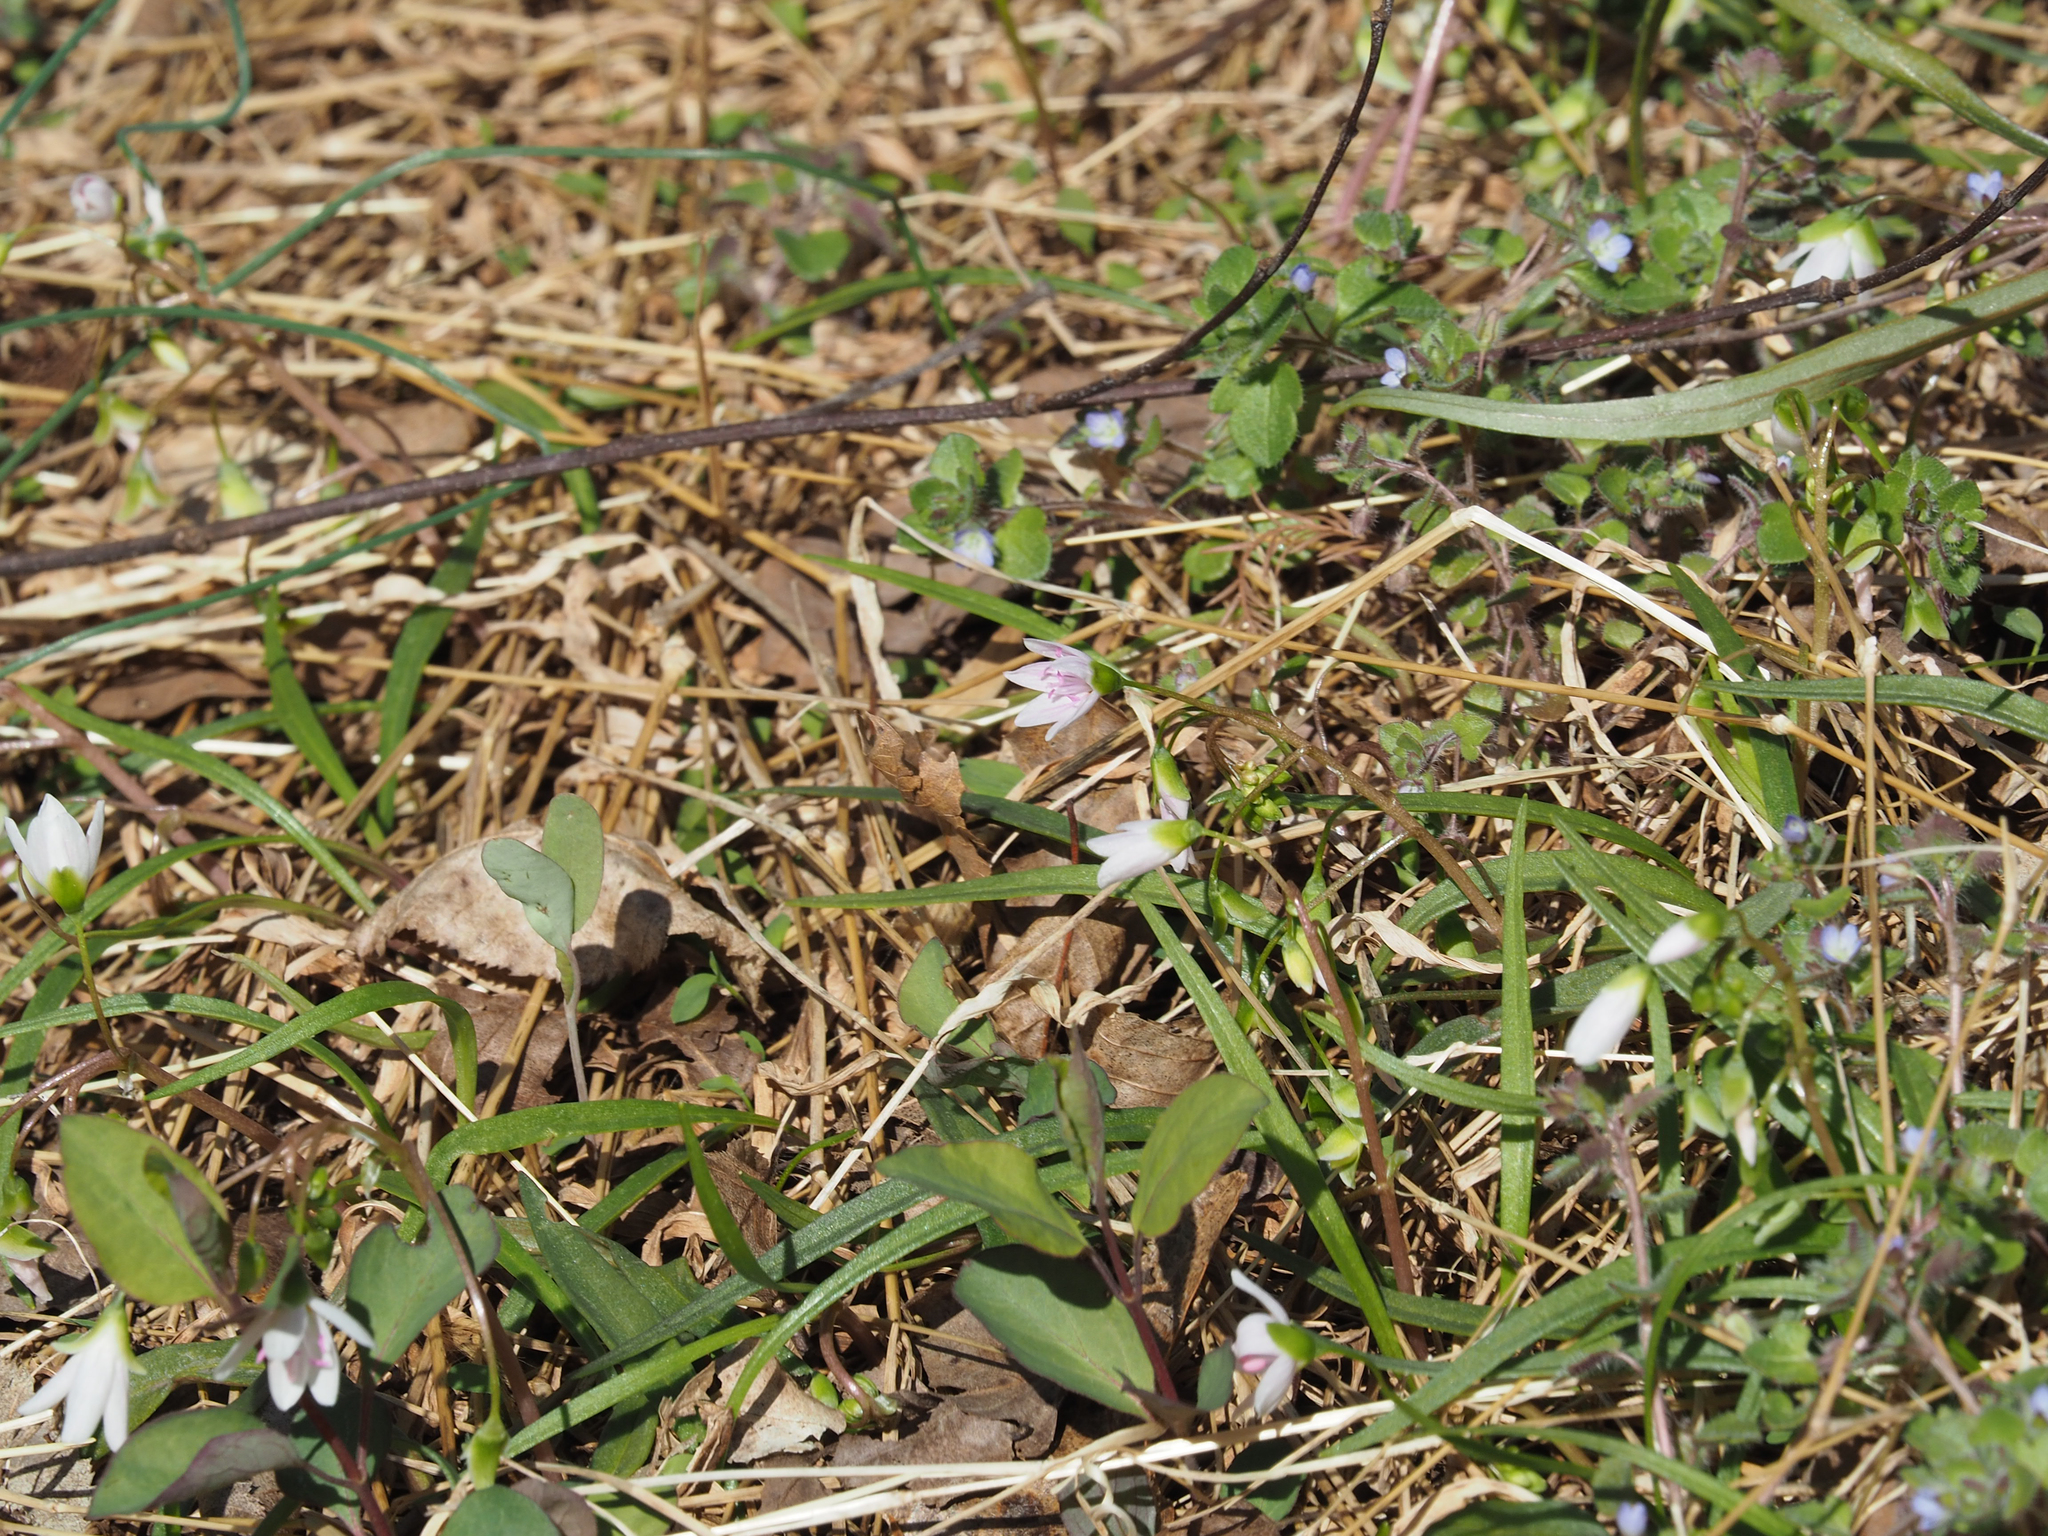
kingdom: Plantae
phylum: Tracheophyta
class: Magnoliopsida
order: Caryophyllales
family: Montiaceae
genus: Claytonia
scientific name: Claytonia virginica
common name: Virginia springbeauty
